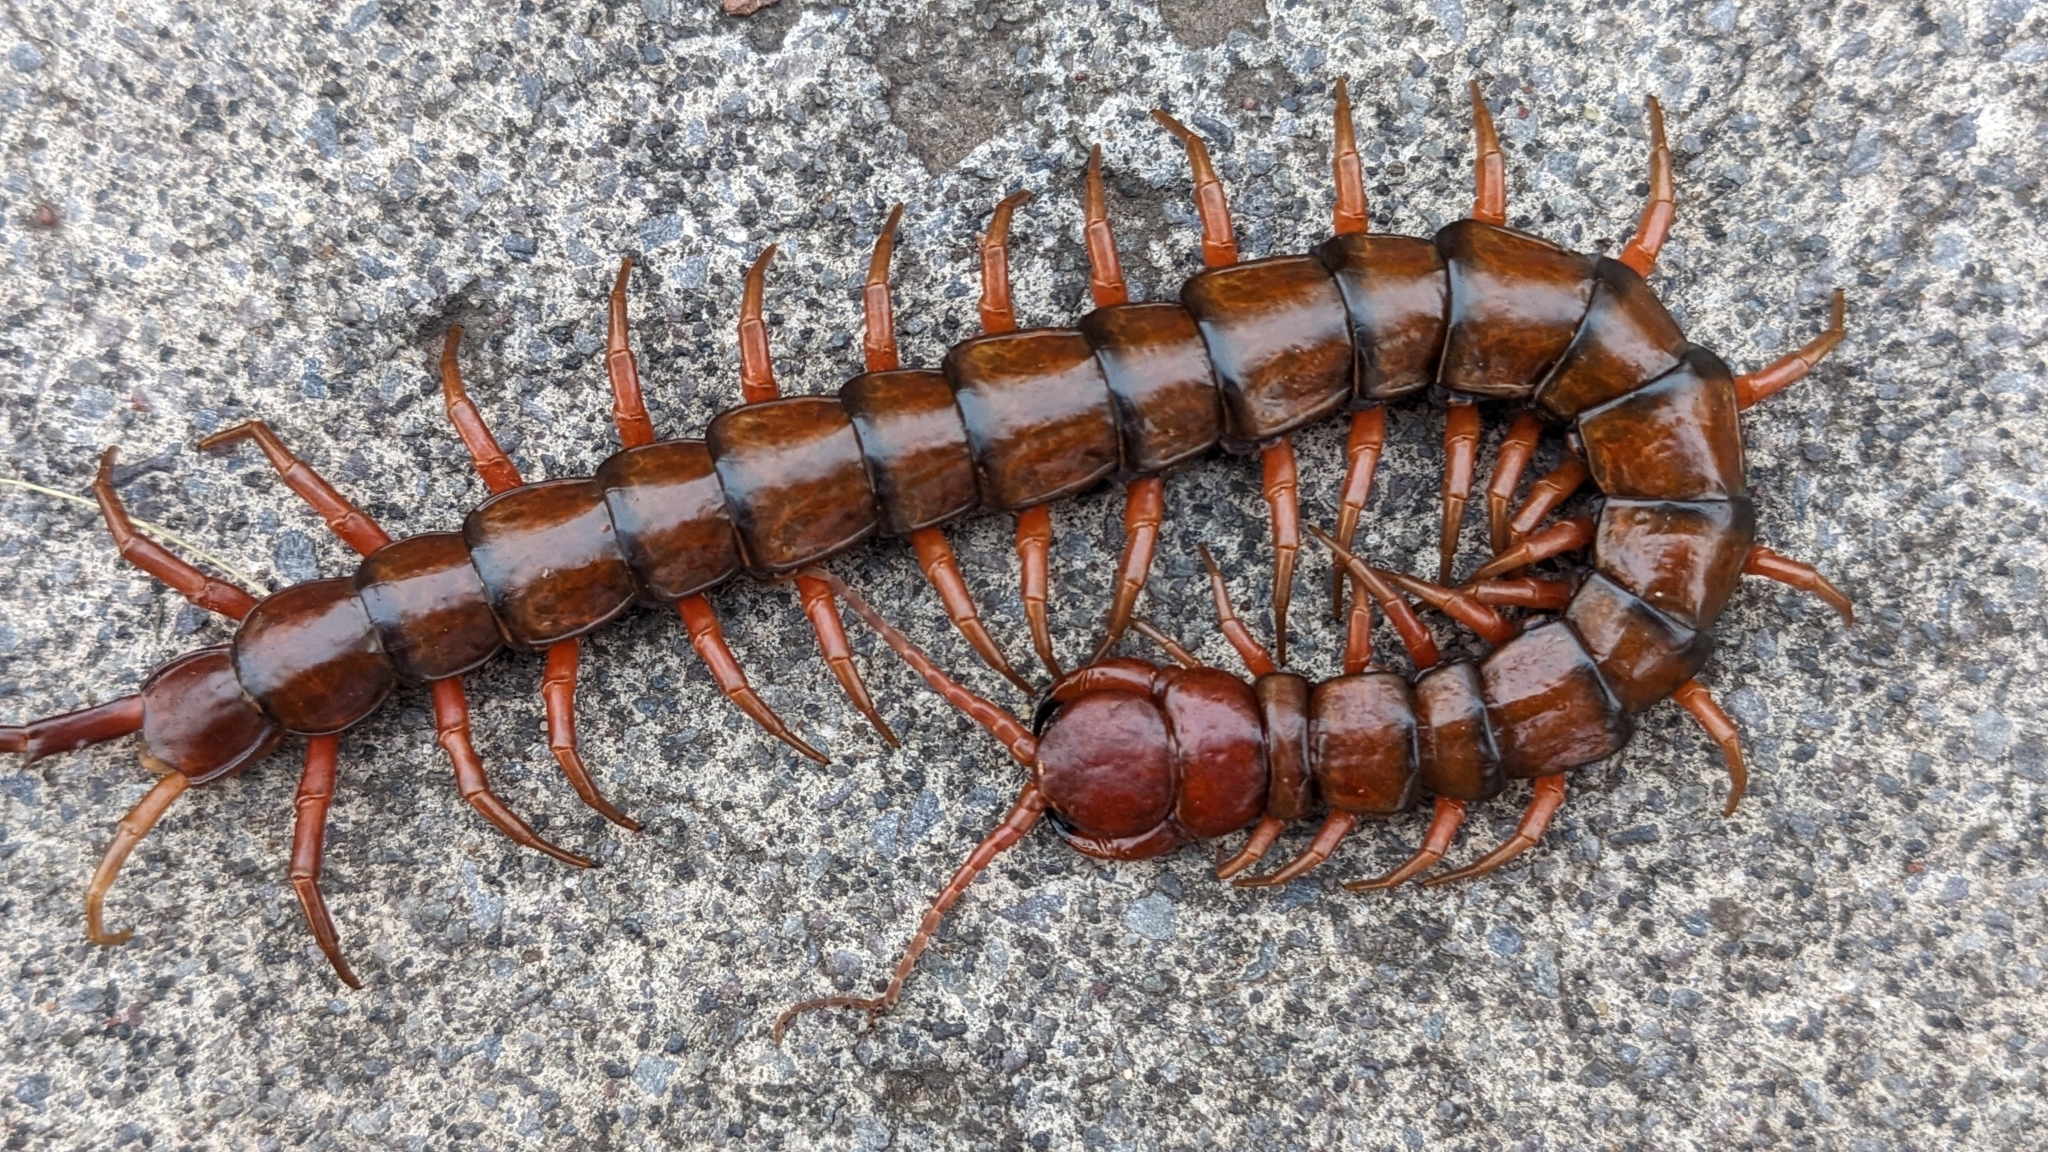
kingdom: Animalia
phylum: Arthropoda
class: Chilopoda
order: Scolopendromorpha
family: Scolopendridae
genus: Scolopendra
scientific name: Scolopendra subspinipes
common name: Centipede
